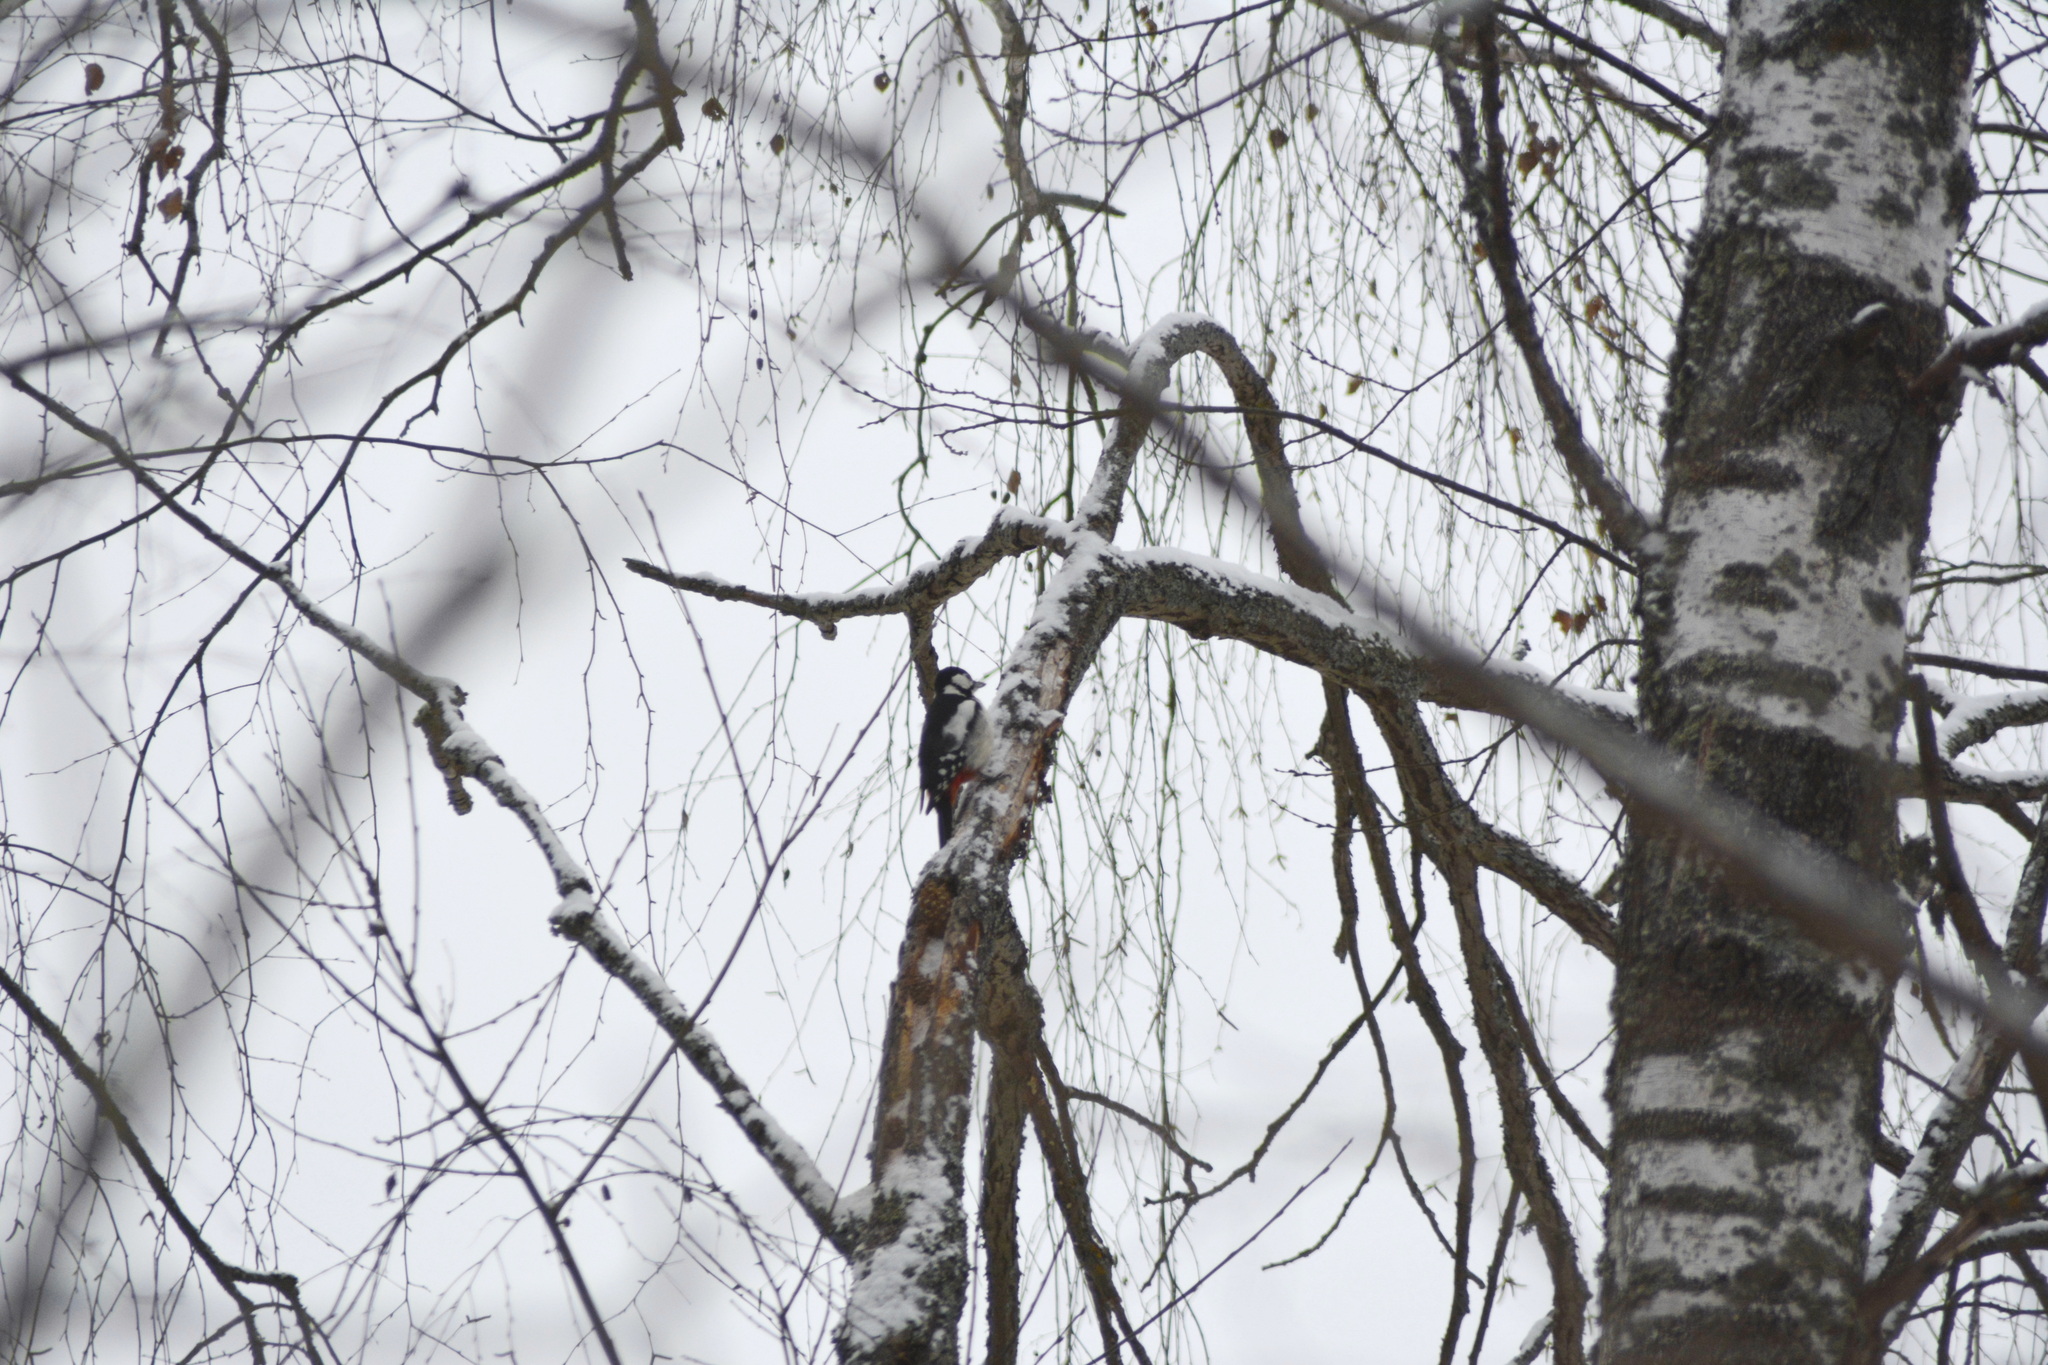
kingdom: Animalia
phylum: Chordata
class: Aves
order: Piciformes
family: Picidae
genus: Dendrocopos
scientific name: Dendrocopos major
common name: Great spotted woodpecker
